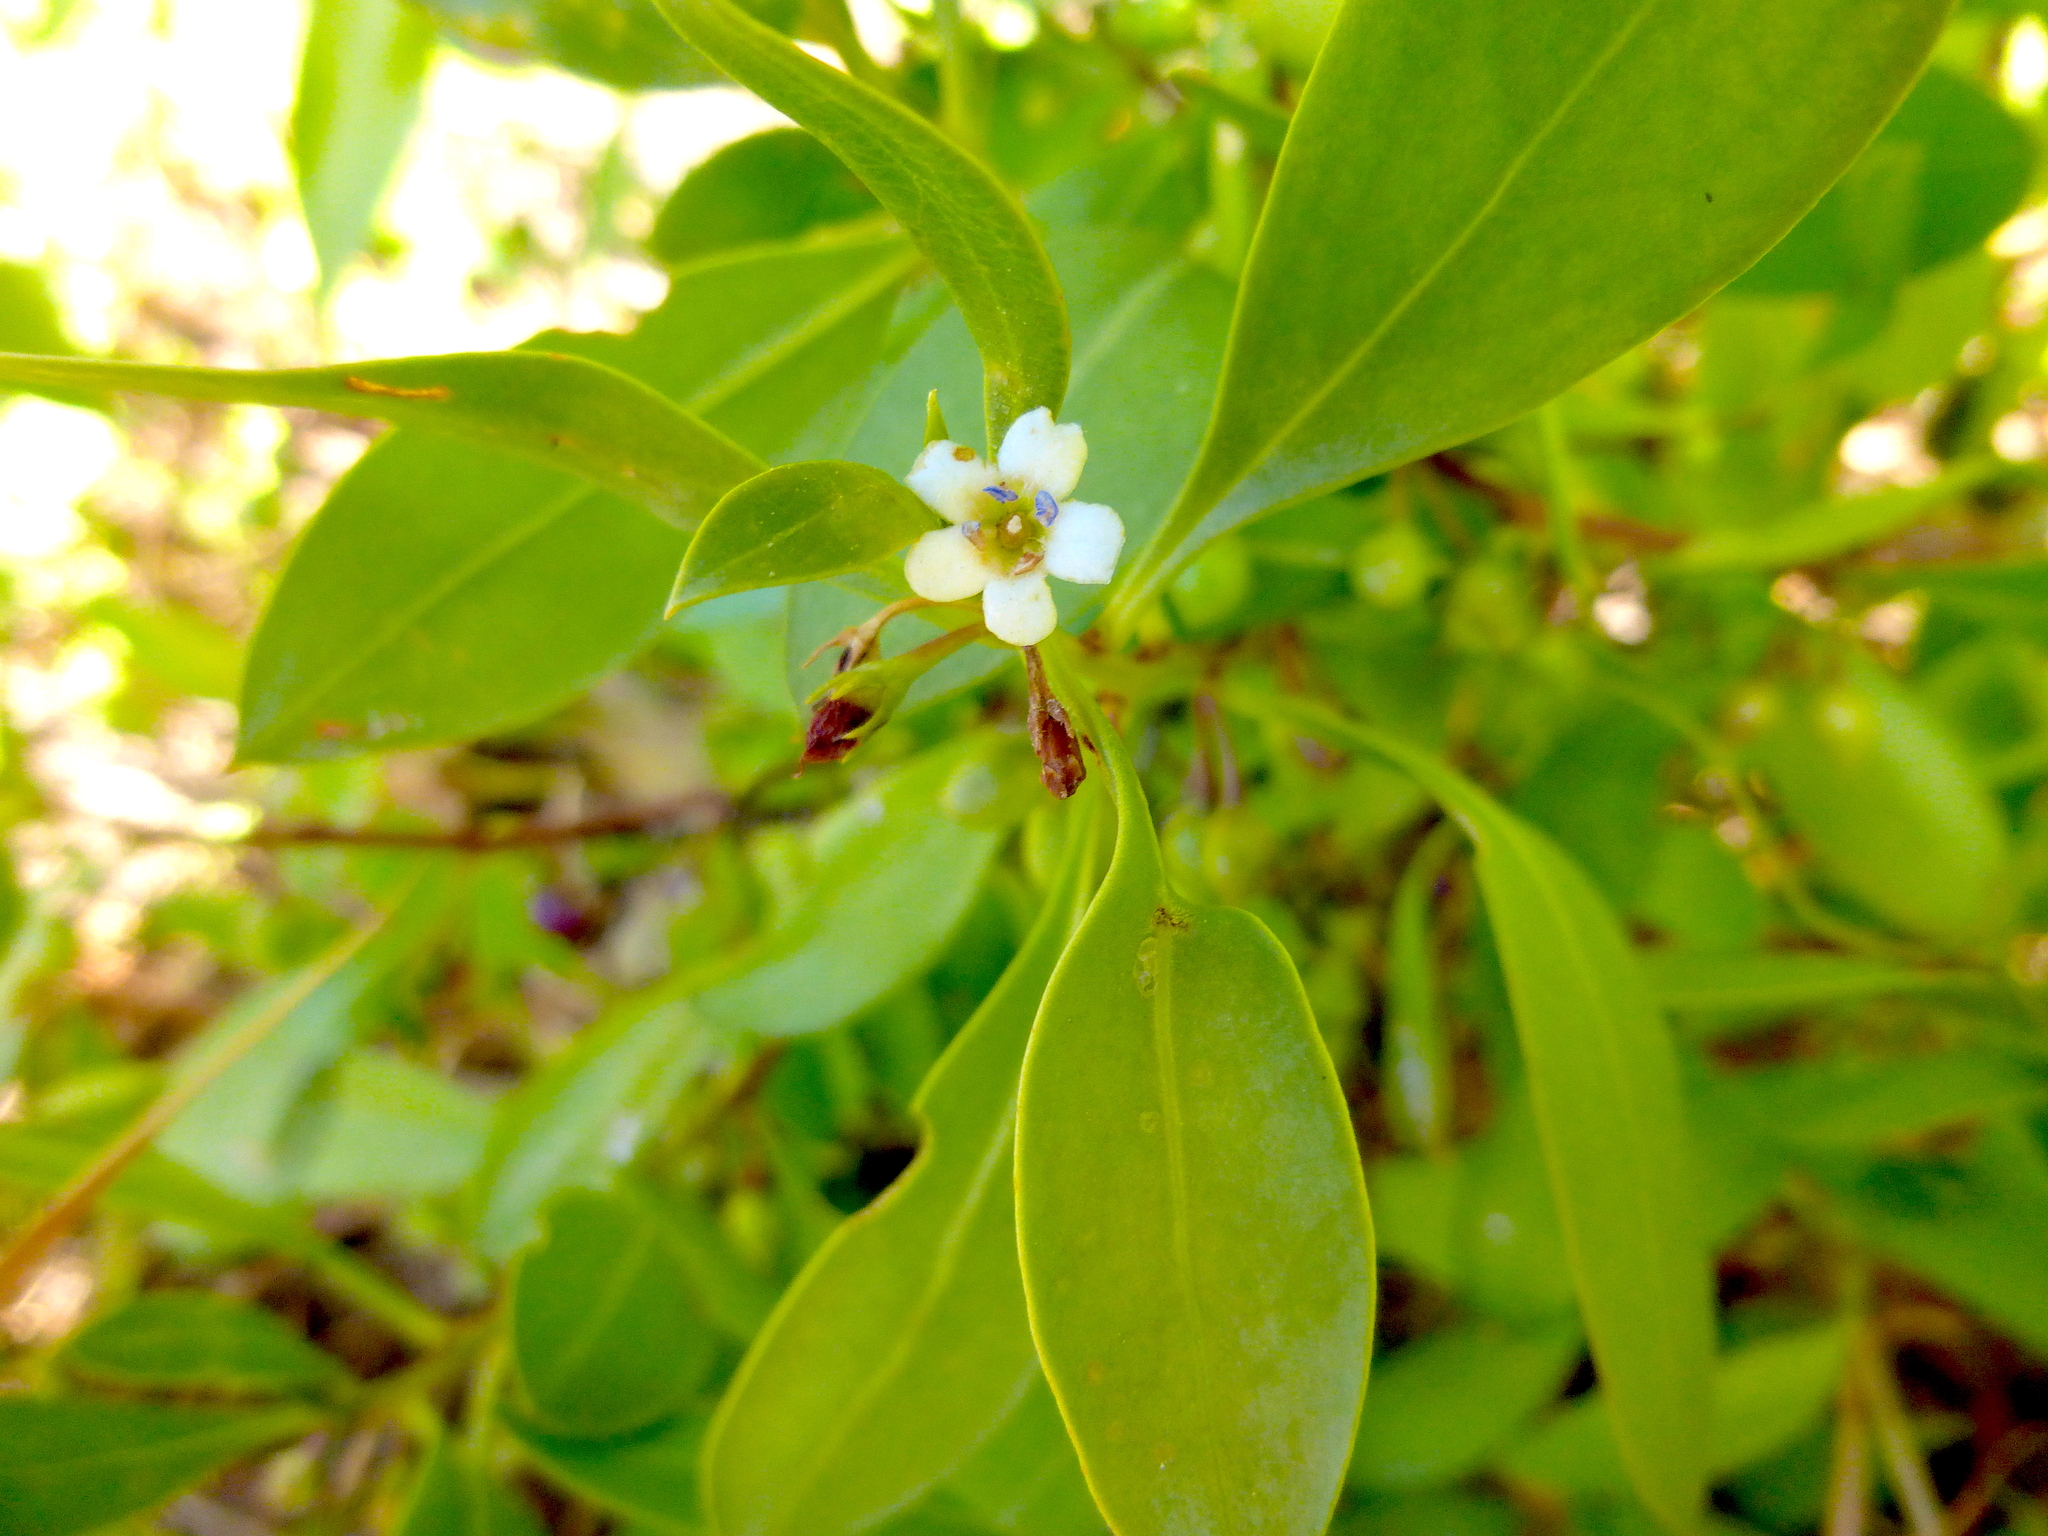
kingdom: Plantae
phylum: Tracheophyta
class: Magnoliopsida
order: Lamiales
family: Scrophulariaceae
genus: Myoporum
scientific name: Myoporum boninense
